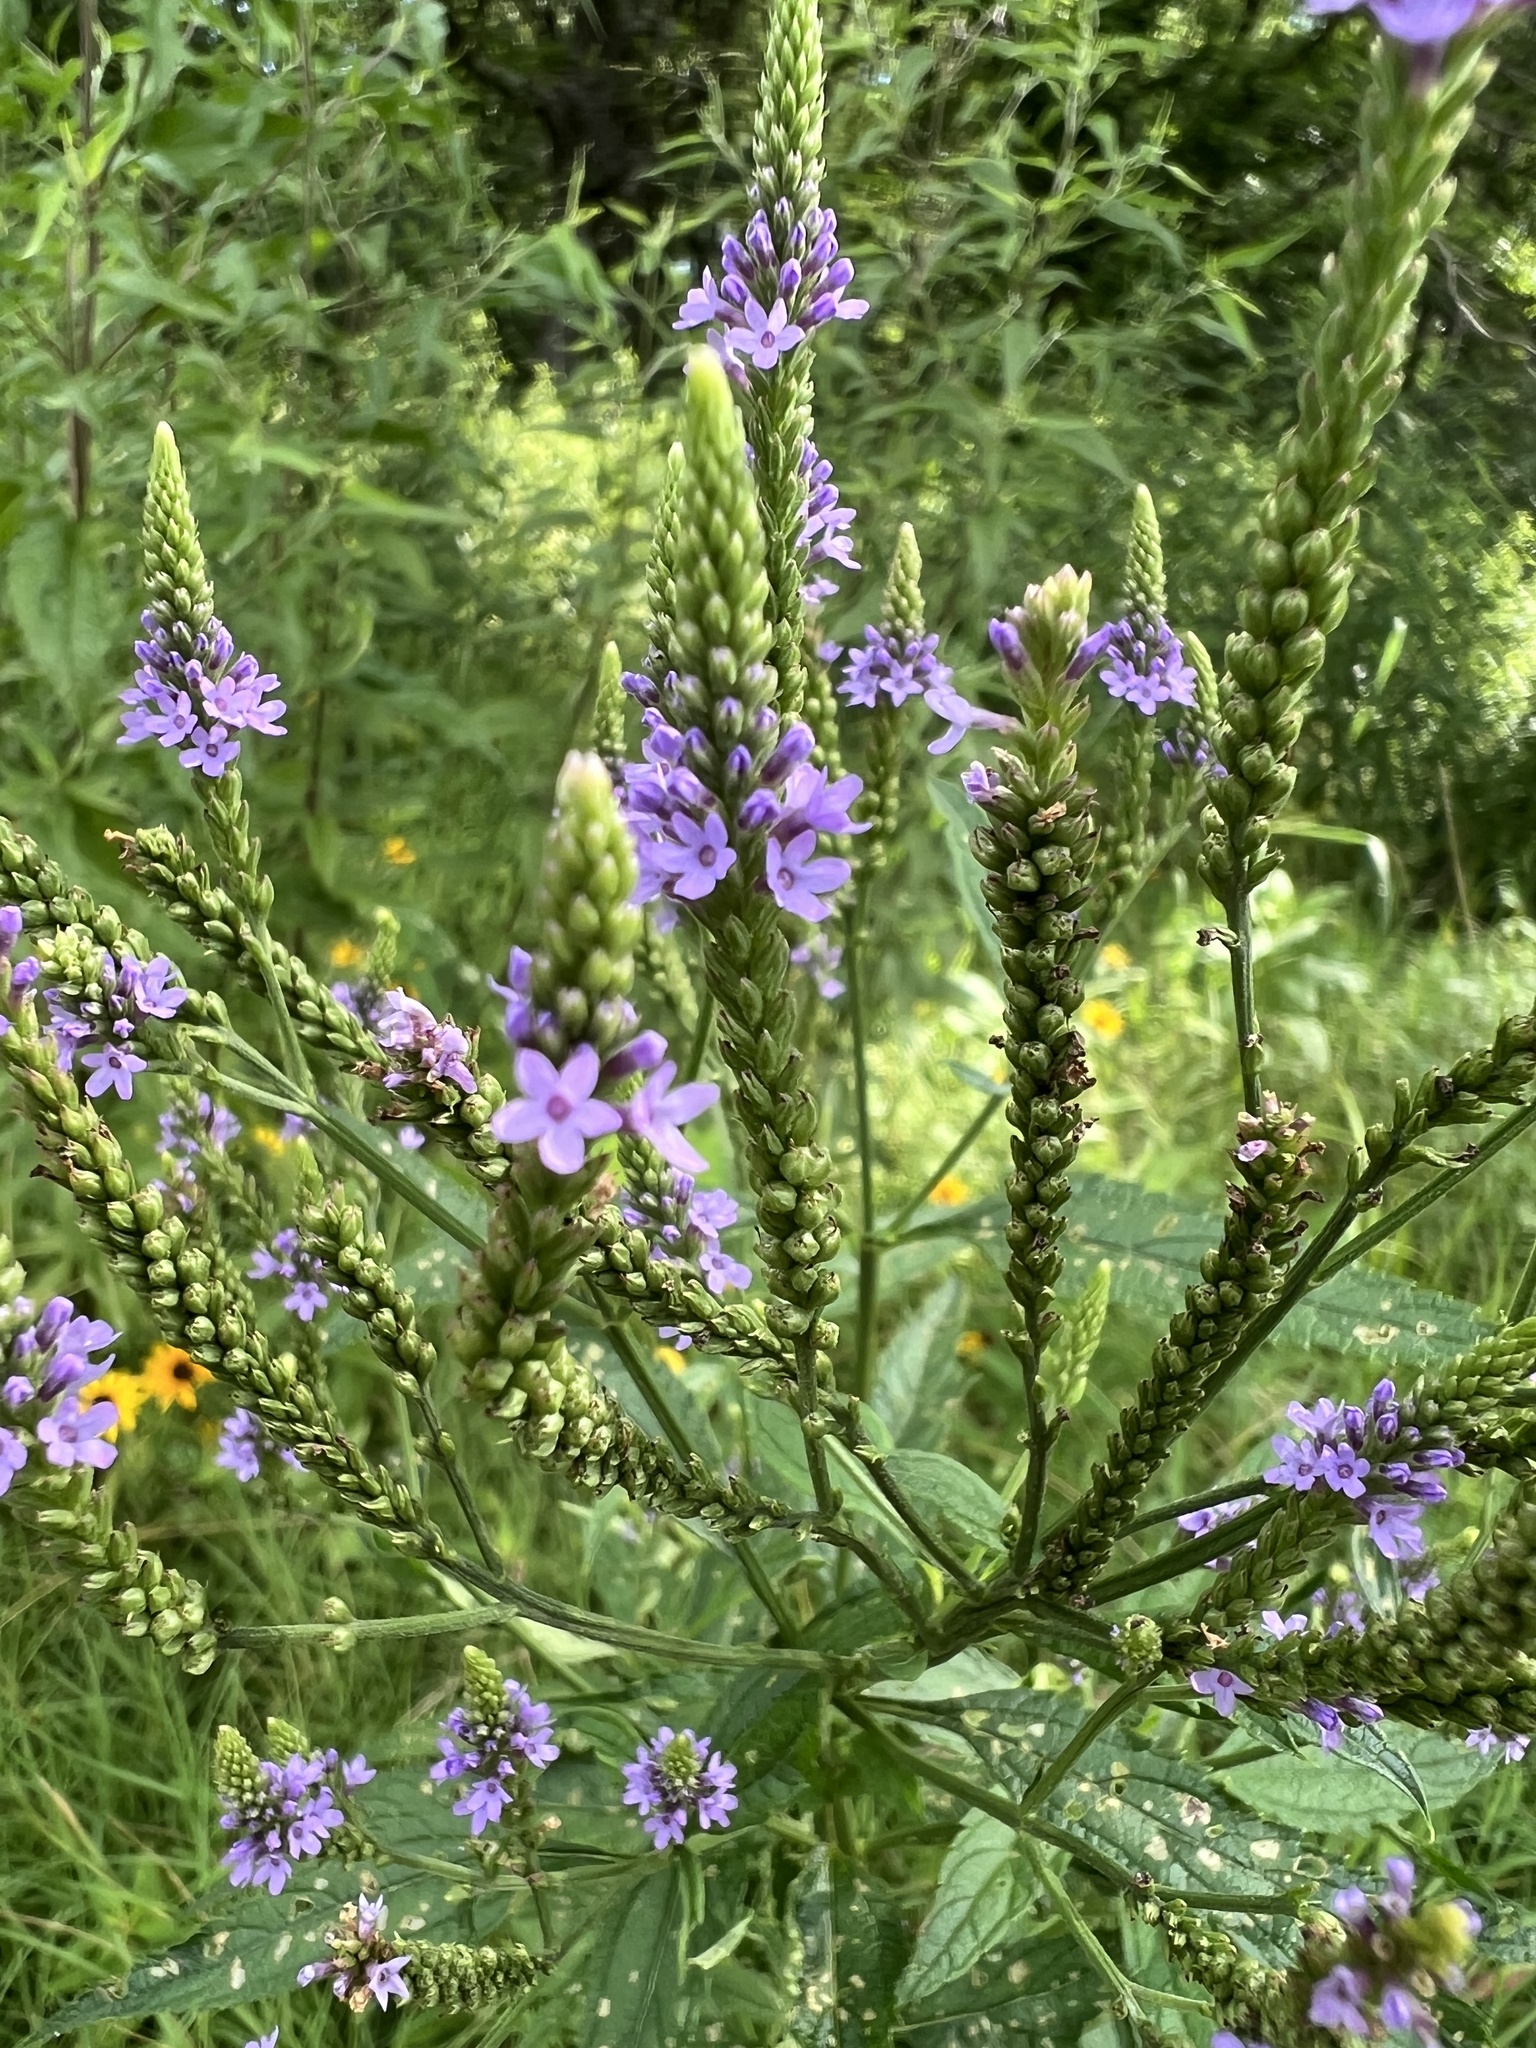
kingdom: Plantae
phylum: Tracheophyta
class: Magnoliopsida
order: Lamiales
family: Verbenaceae
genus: Verbena
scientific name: Verbena hastata
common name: American blue vervain
